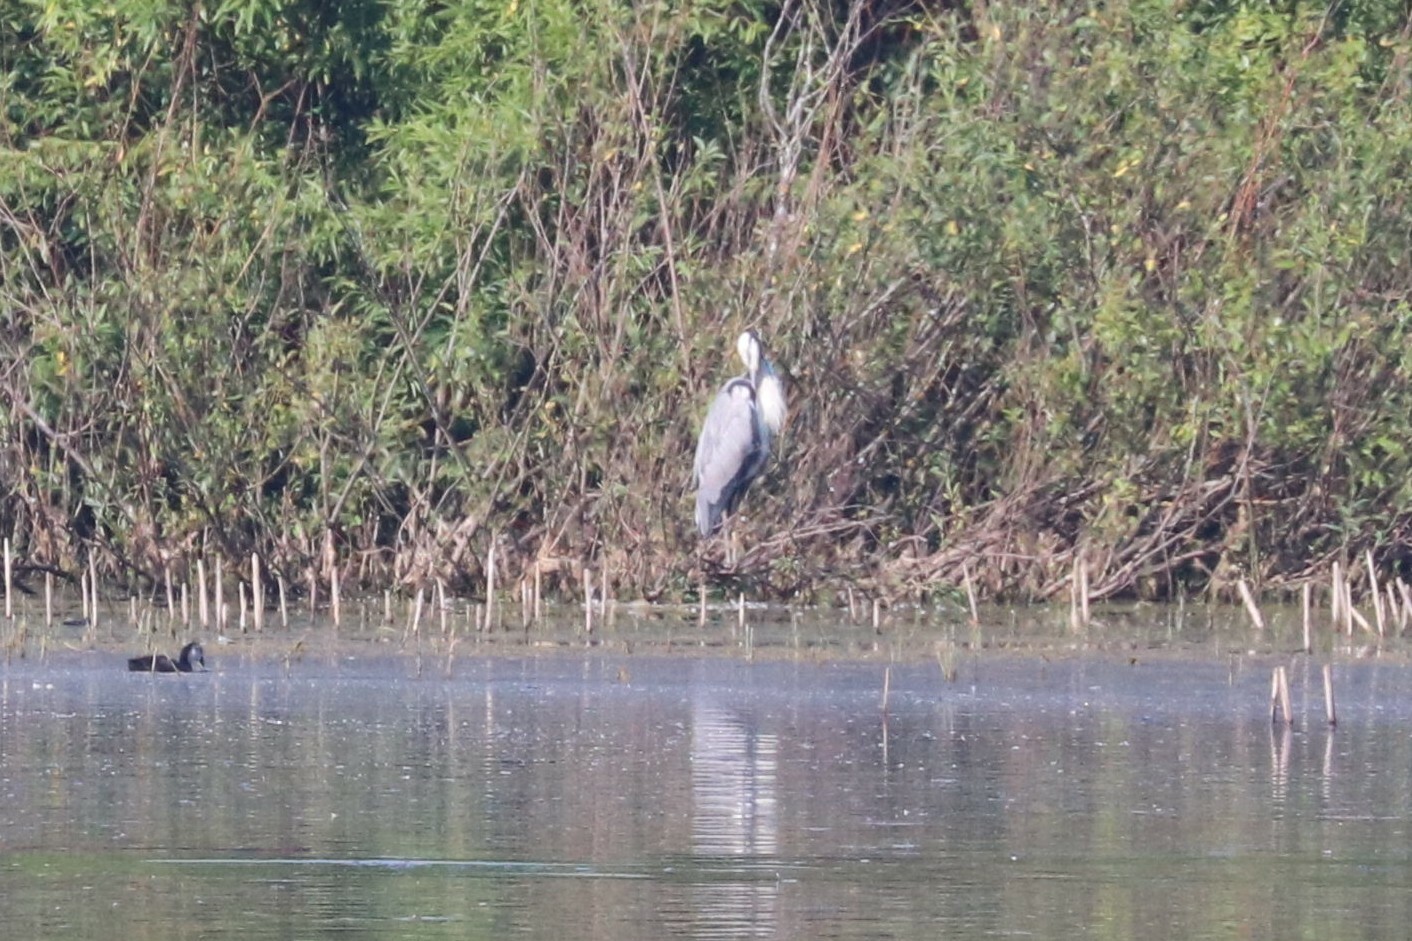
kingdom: Animalia
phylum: Chordata
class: Aves
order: Pelecaniformes
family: Ardeidae
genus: Ardea
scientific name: Ardea cinerea
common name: Grey heron
